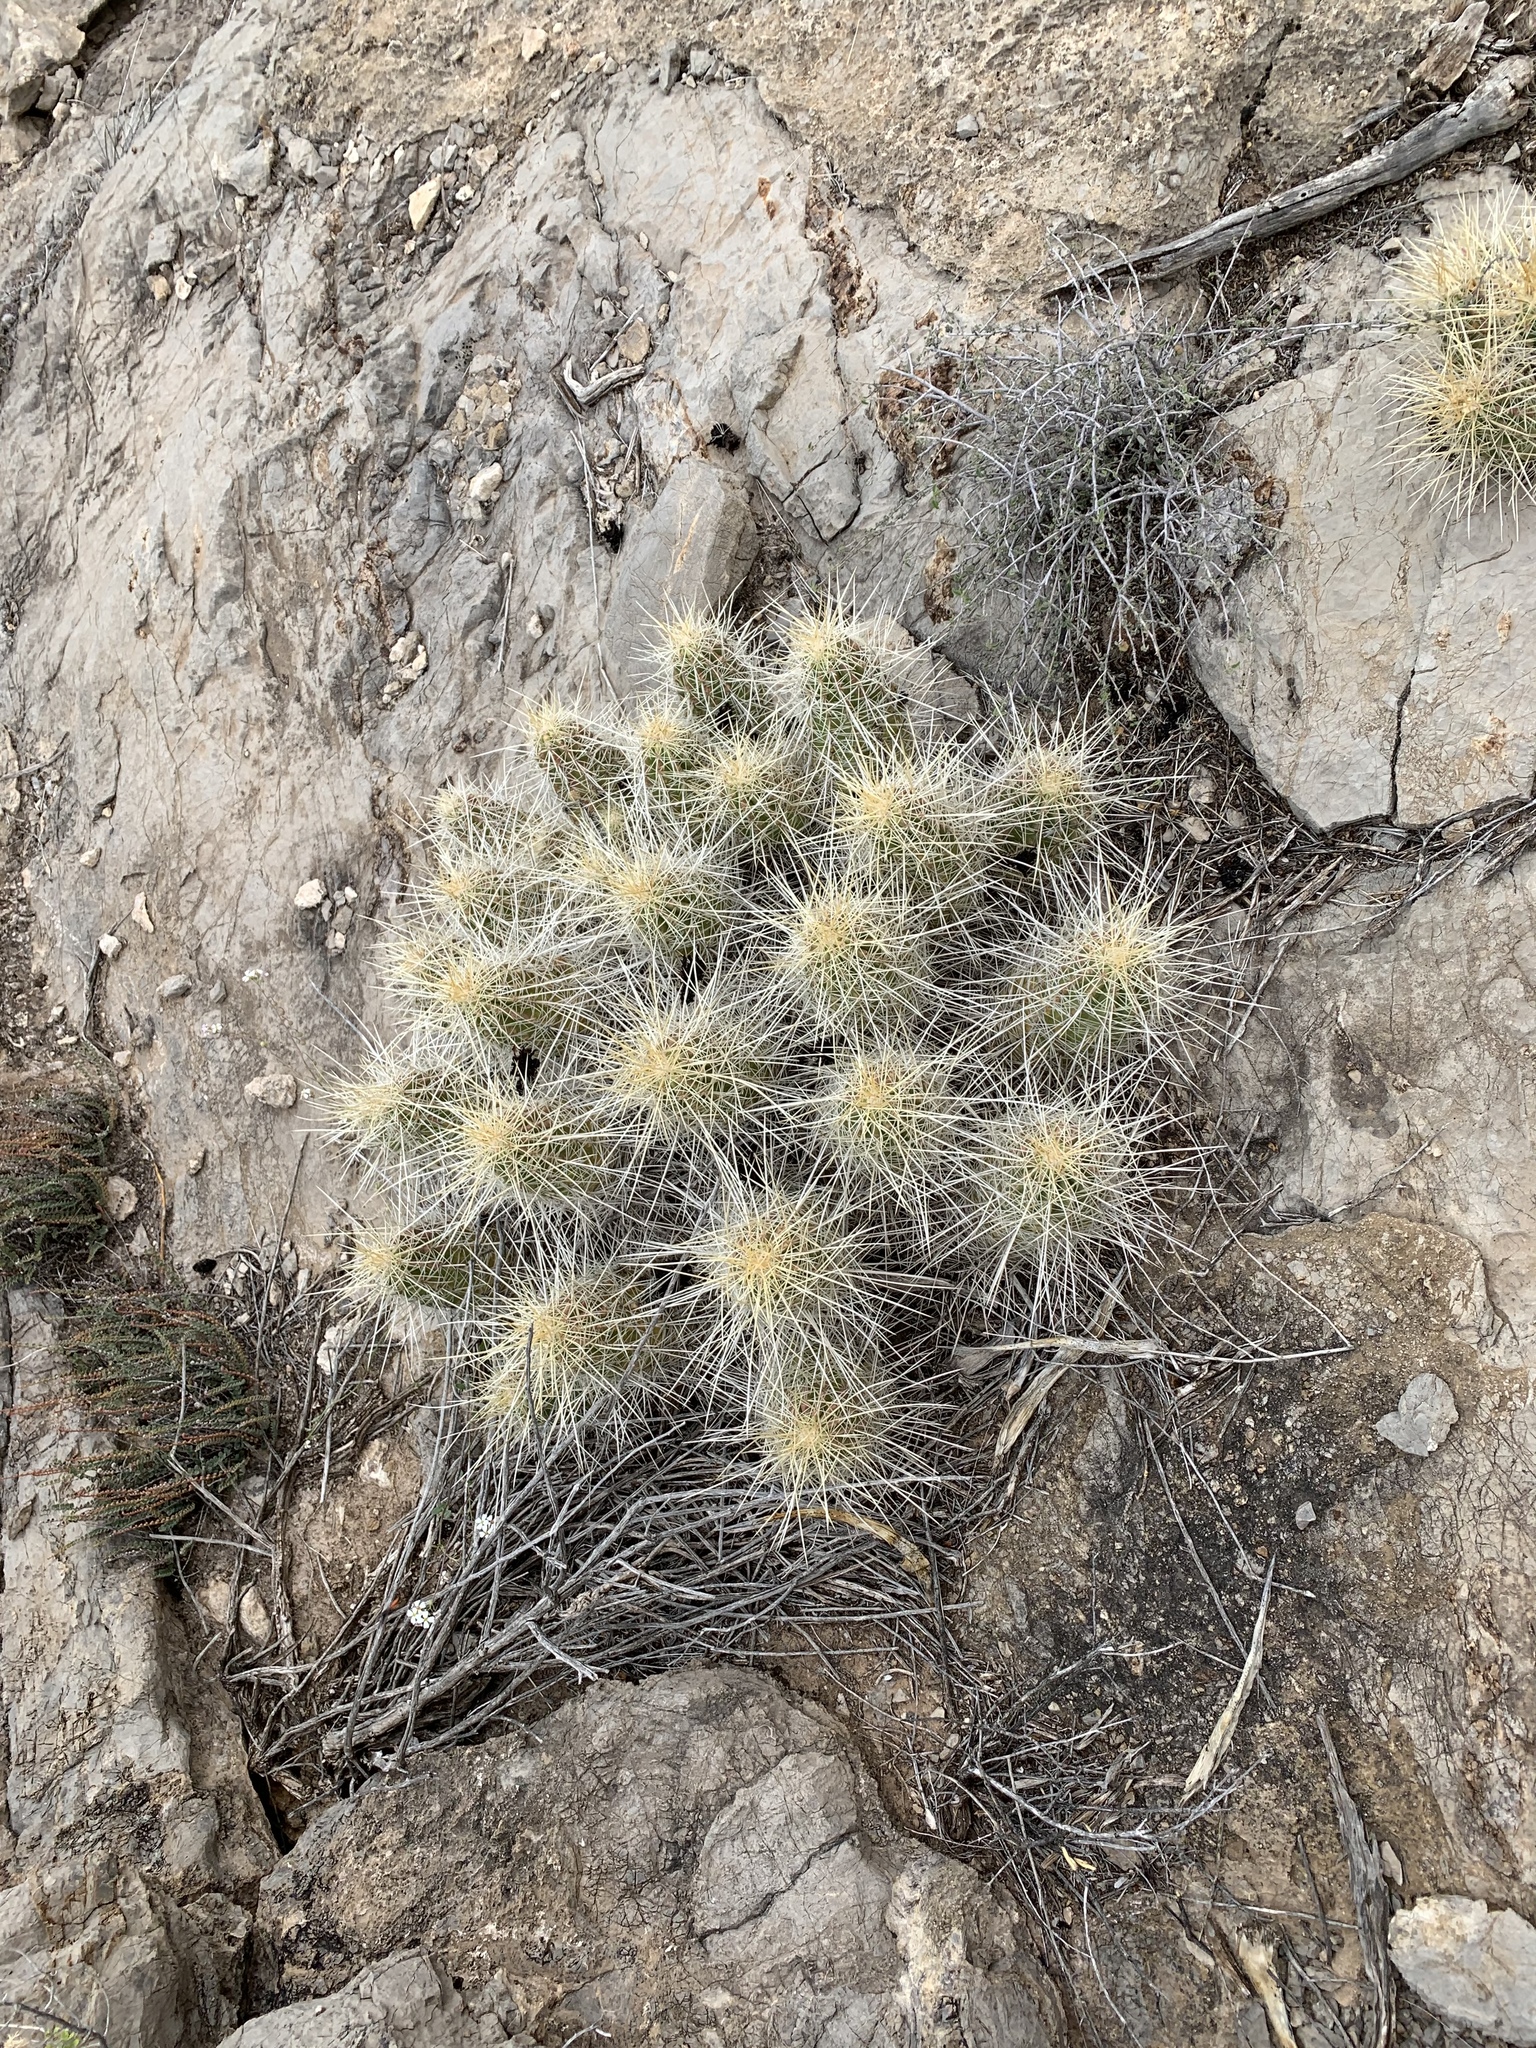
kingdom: Plantae
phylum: Tracheophyta
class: Magnoliopsida
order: Caryophyllales
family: Cactaceae
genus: Echinocereus
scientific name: Echinocereus stramineus
